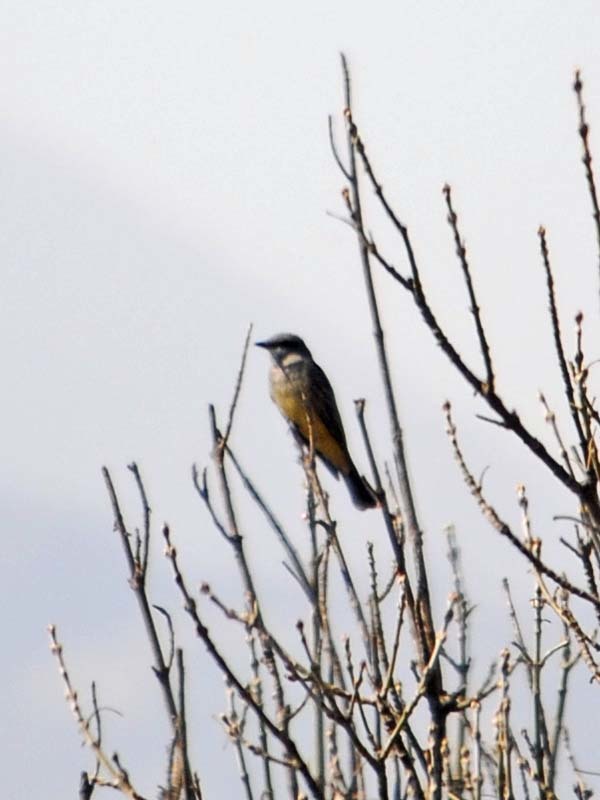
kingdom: Animalia
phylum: Chordata
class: Aves
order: Passeriformes
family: Tyrannidae
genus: Tyrannus
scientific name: Tyrannus vociferans
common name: Cassin's kingbird
